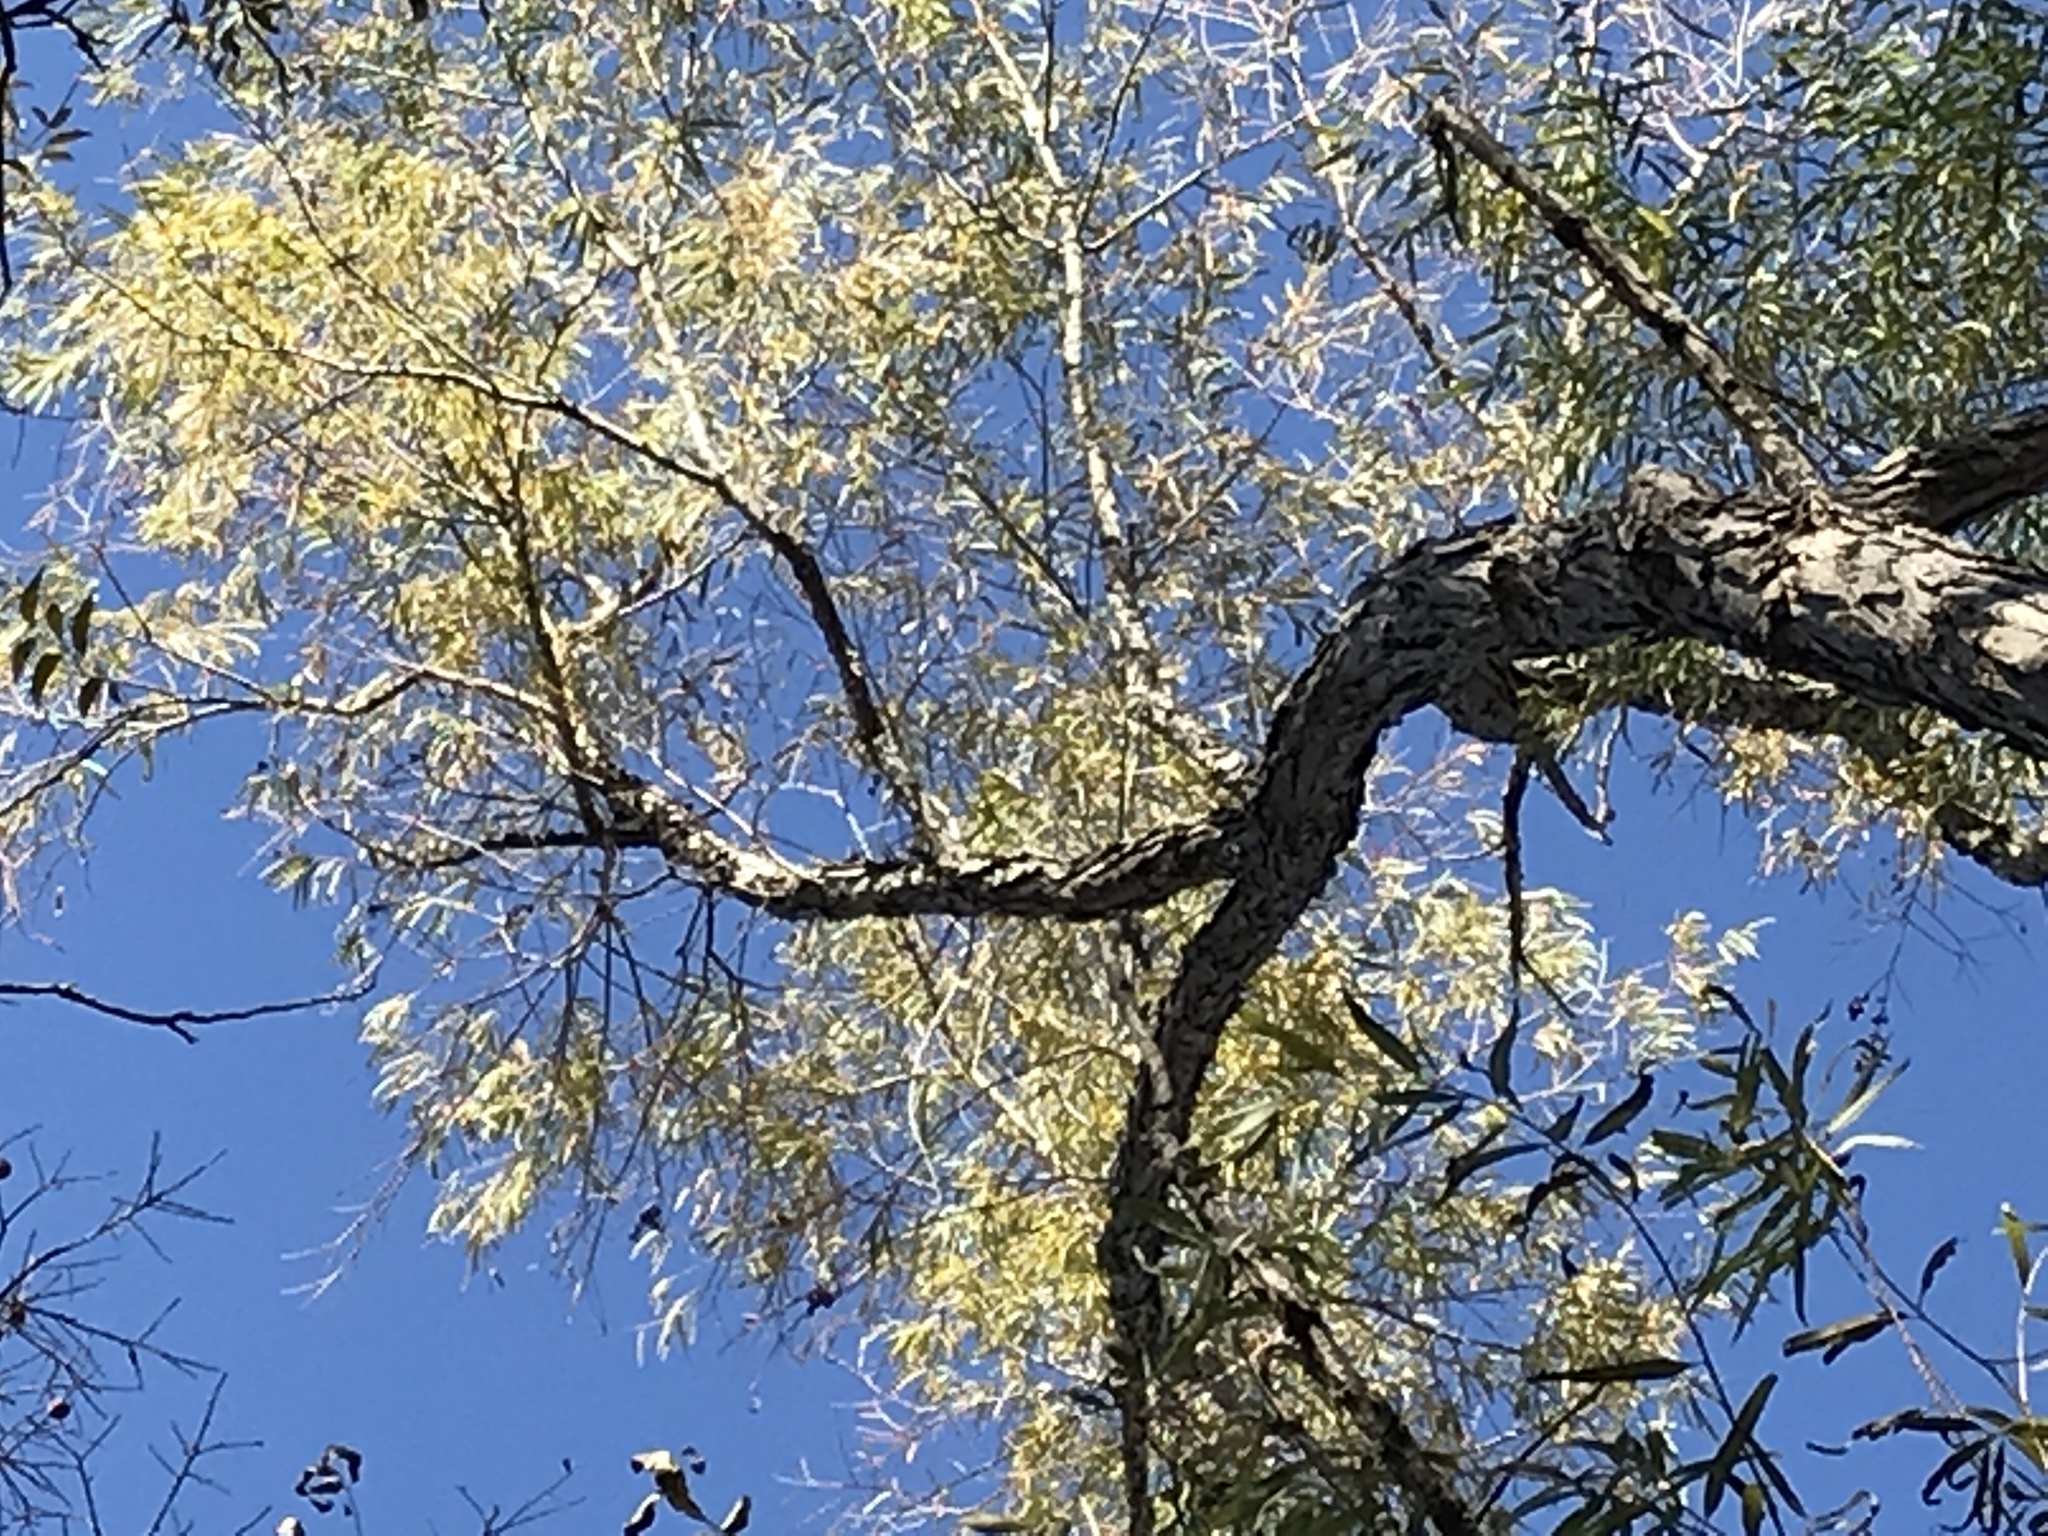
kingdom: Plantae
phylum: Tracheophyta
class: Magnoliopsida
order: Malpighiales
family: Salicaceae
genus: Salix
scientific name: Salix nigra
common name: Black willow
